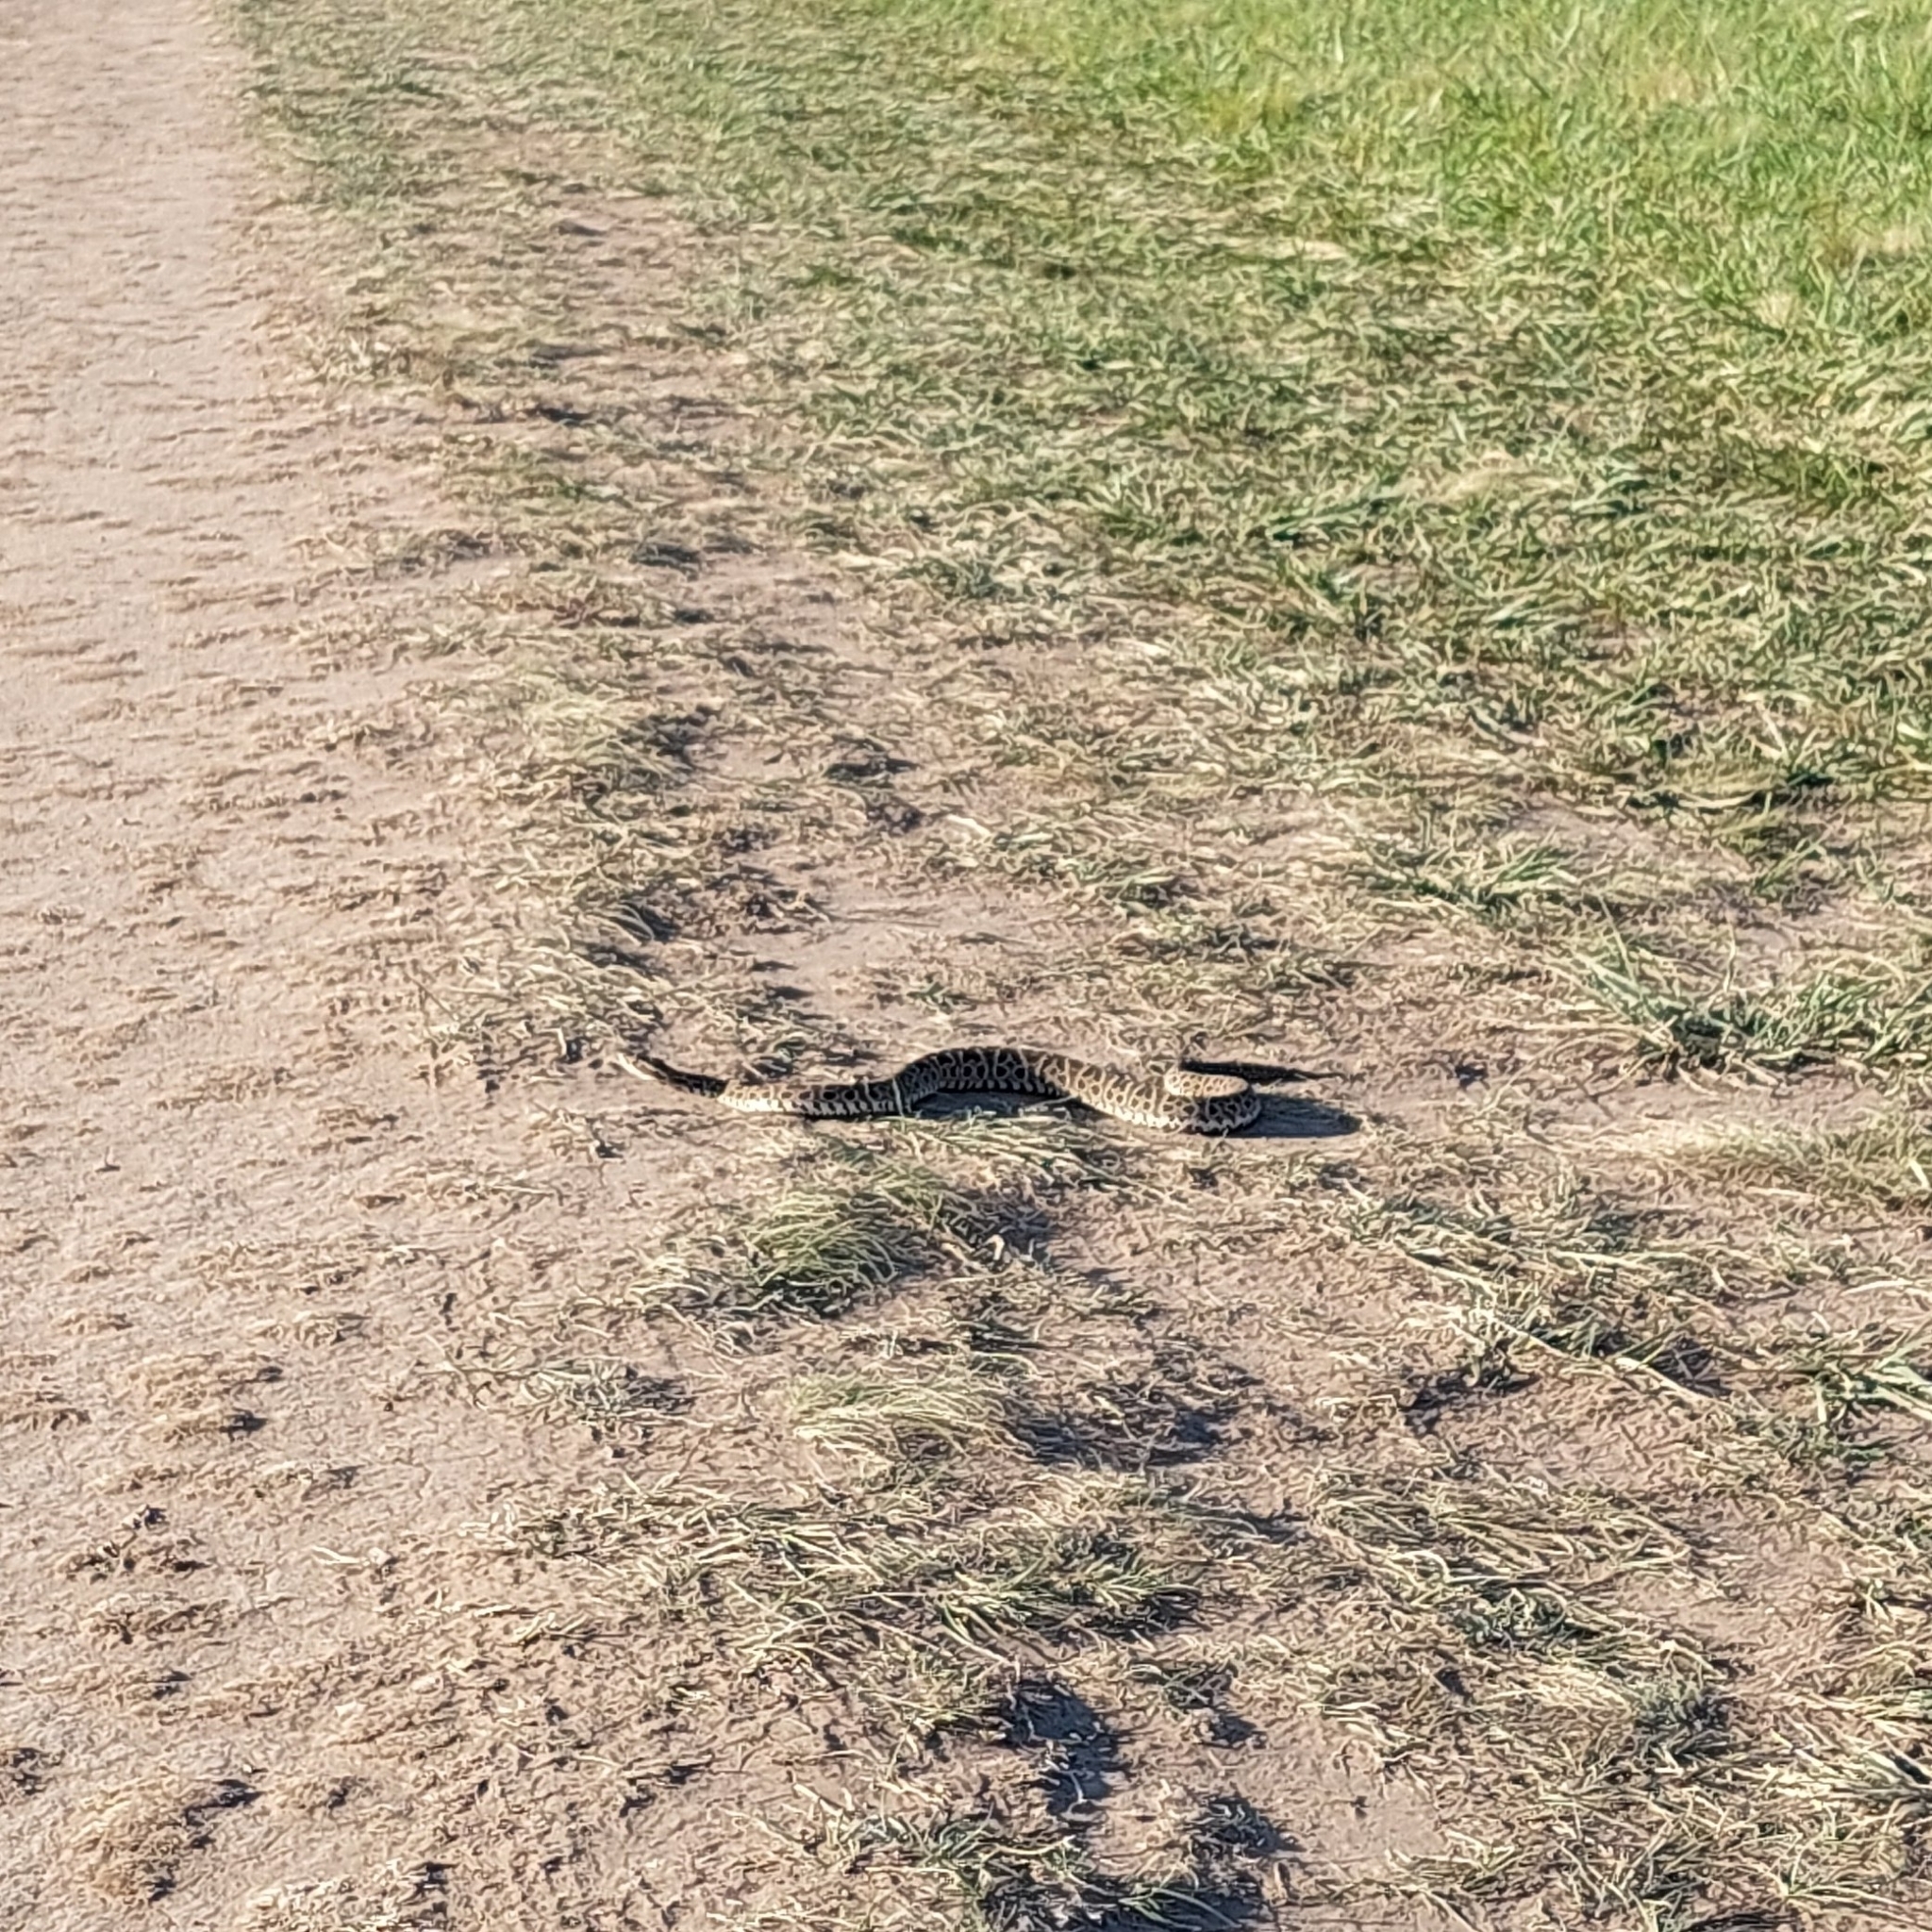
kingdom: Animalia
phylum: Chordata
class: Squamata
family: Viperidae
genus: Bothrops
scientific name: Bothrops alternatus
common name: Urutu
